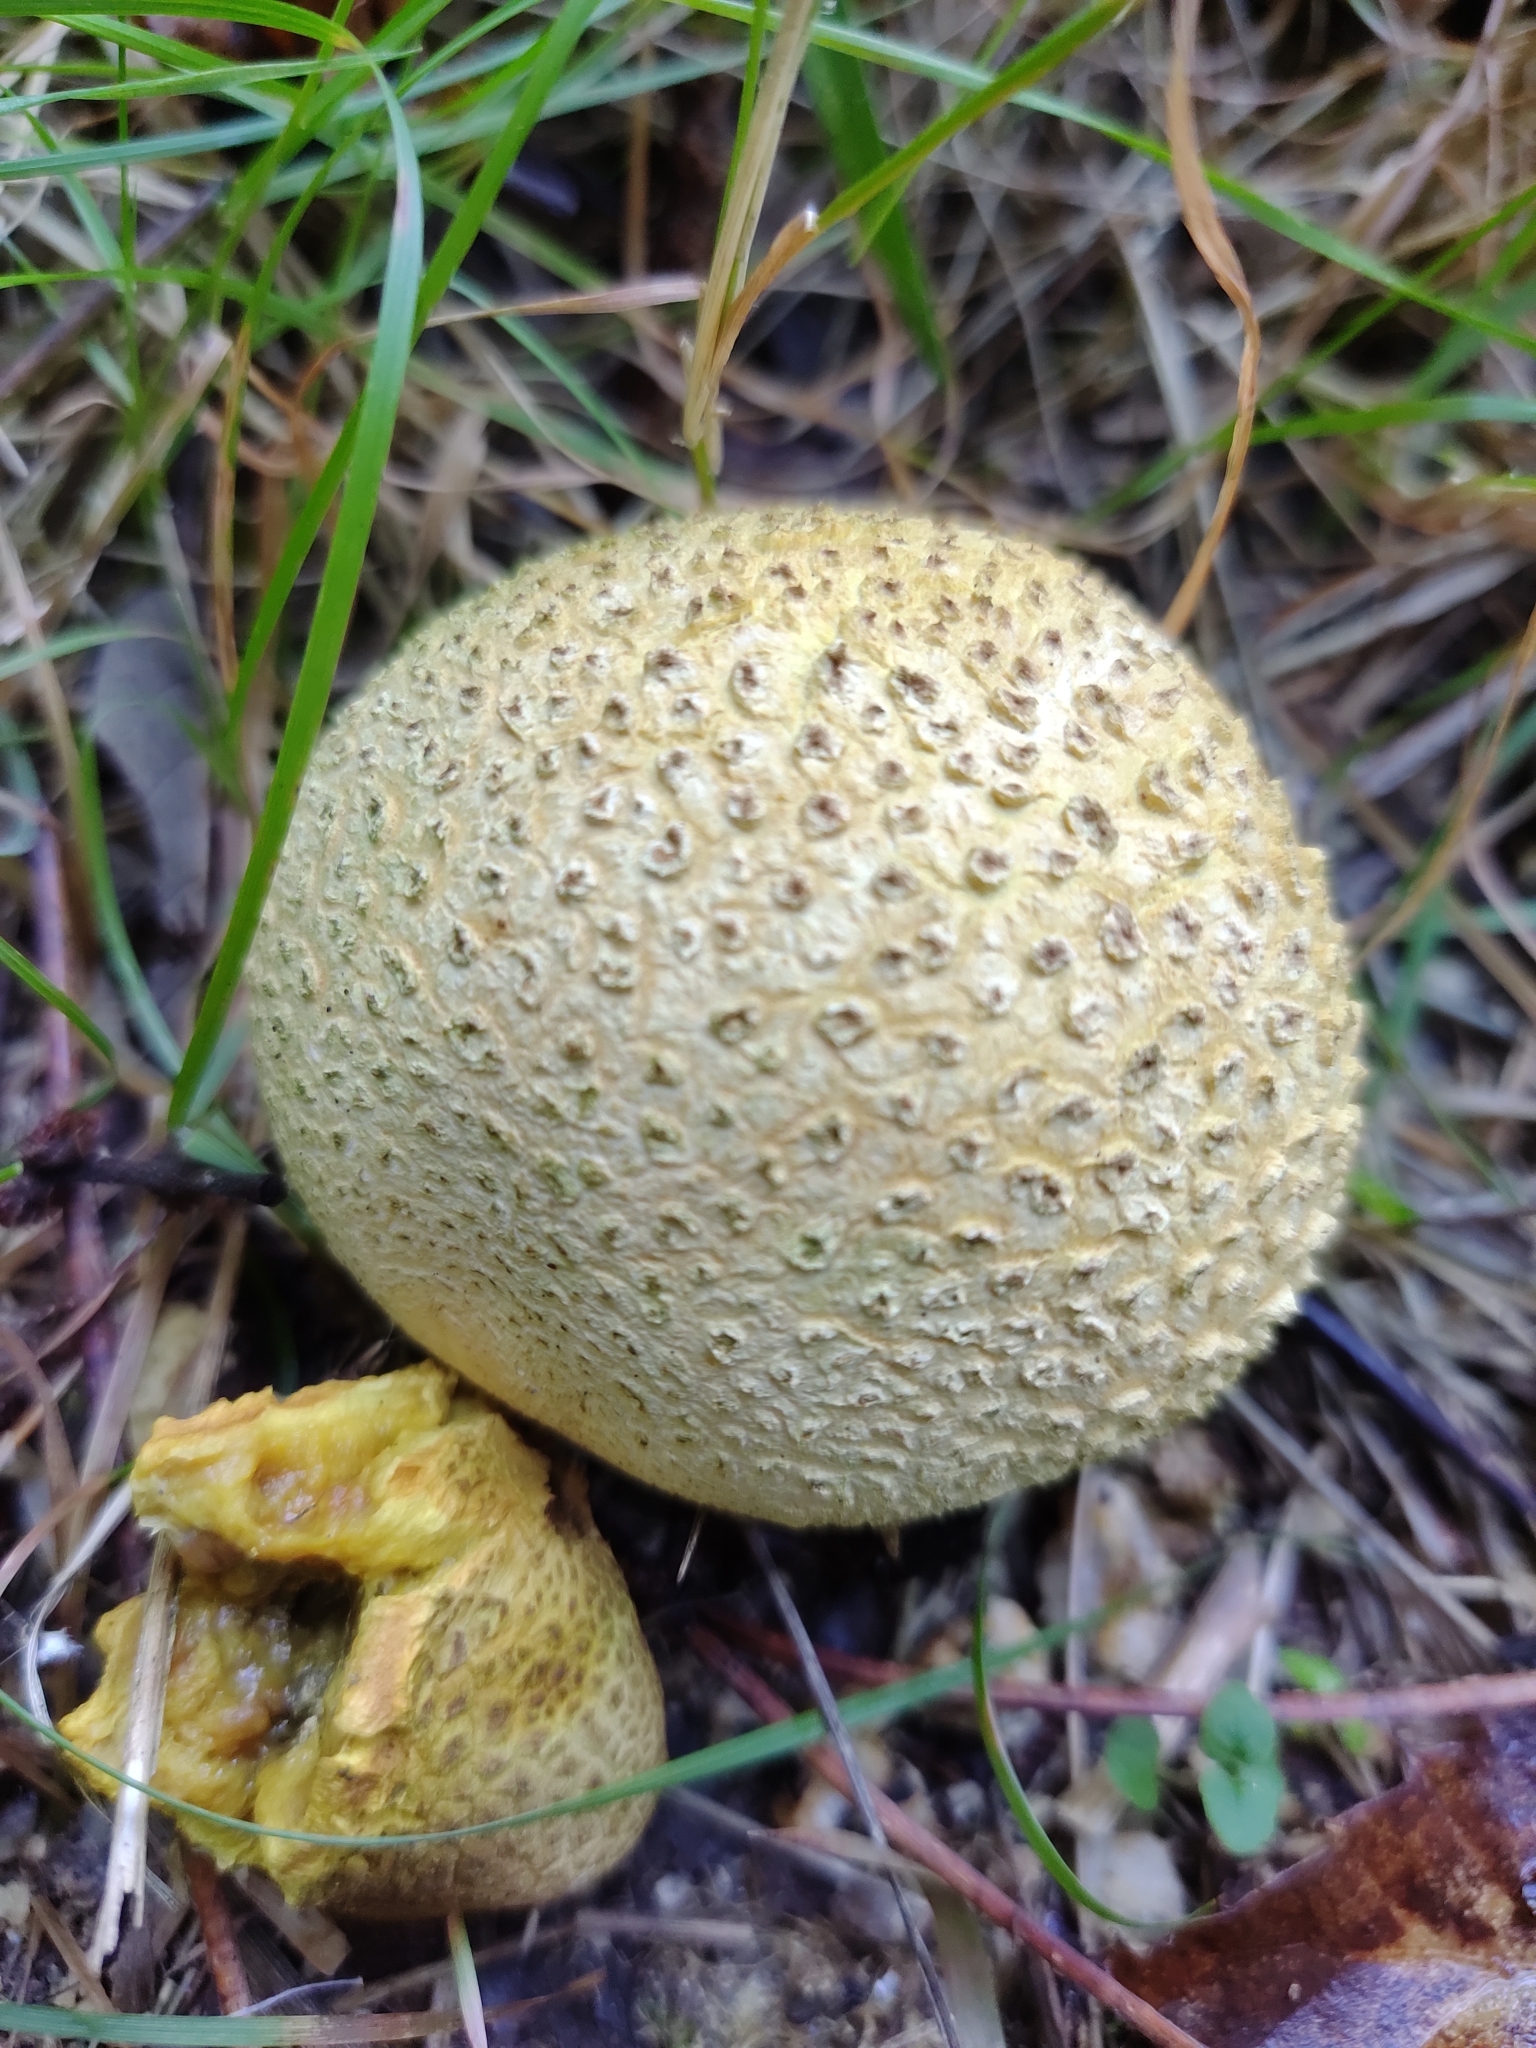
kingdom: Fungi
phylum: Basidiomycota
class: Agaricomycetes
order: Boletales
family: Sclerodermataceae
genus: Scleroderma
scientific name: Scleroderma citrinum
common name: Common earthball
